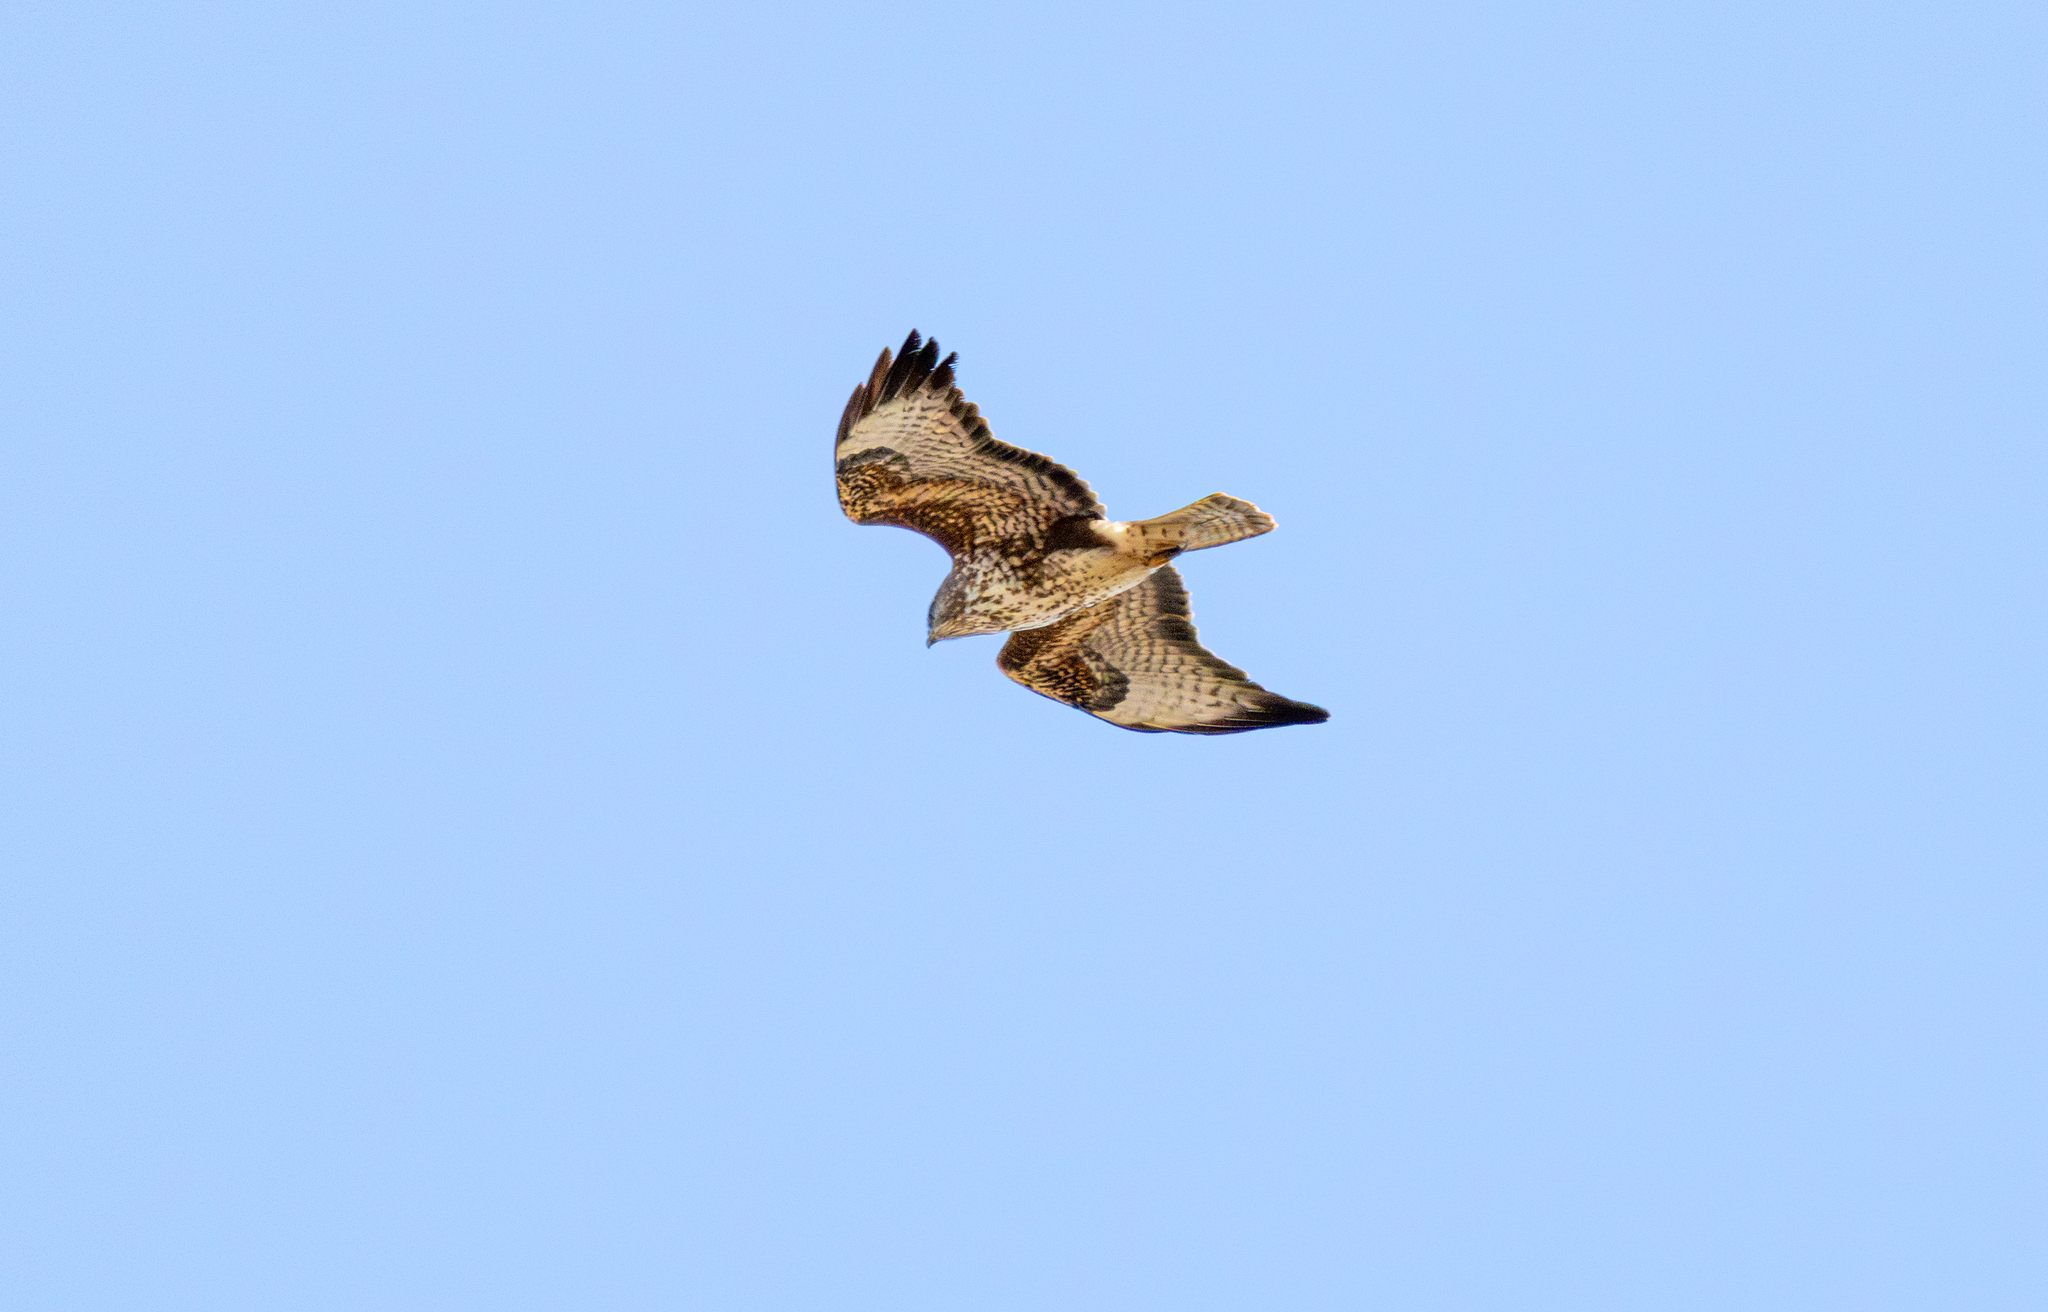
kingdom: Animalia
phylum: Chordata
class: Aves
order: Accipitriformes
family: Accipitridae
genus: Buteo
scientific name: Buteo buteo
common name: Common buzzard
